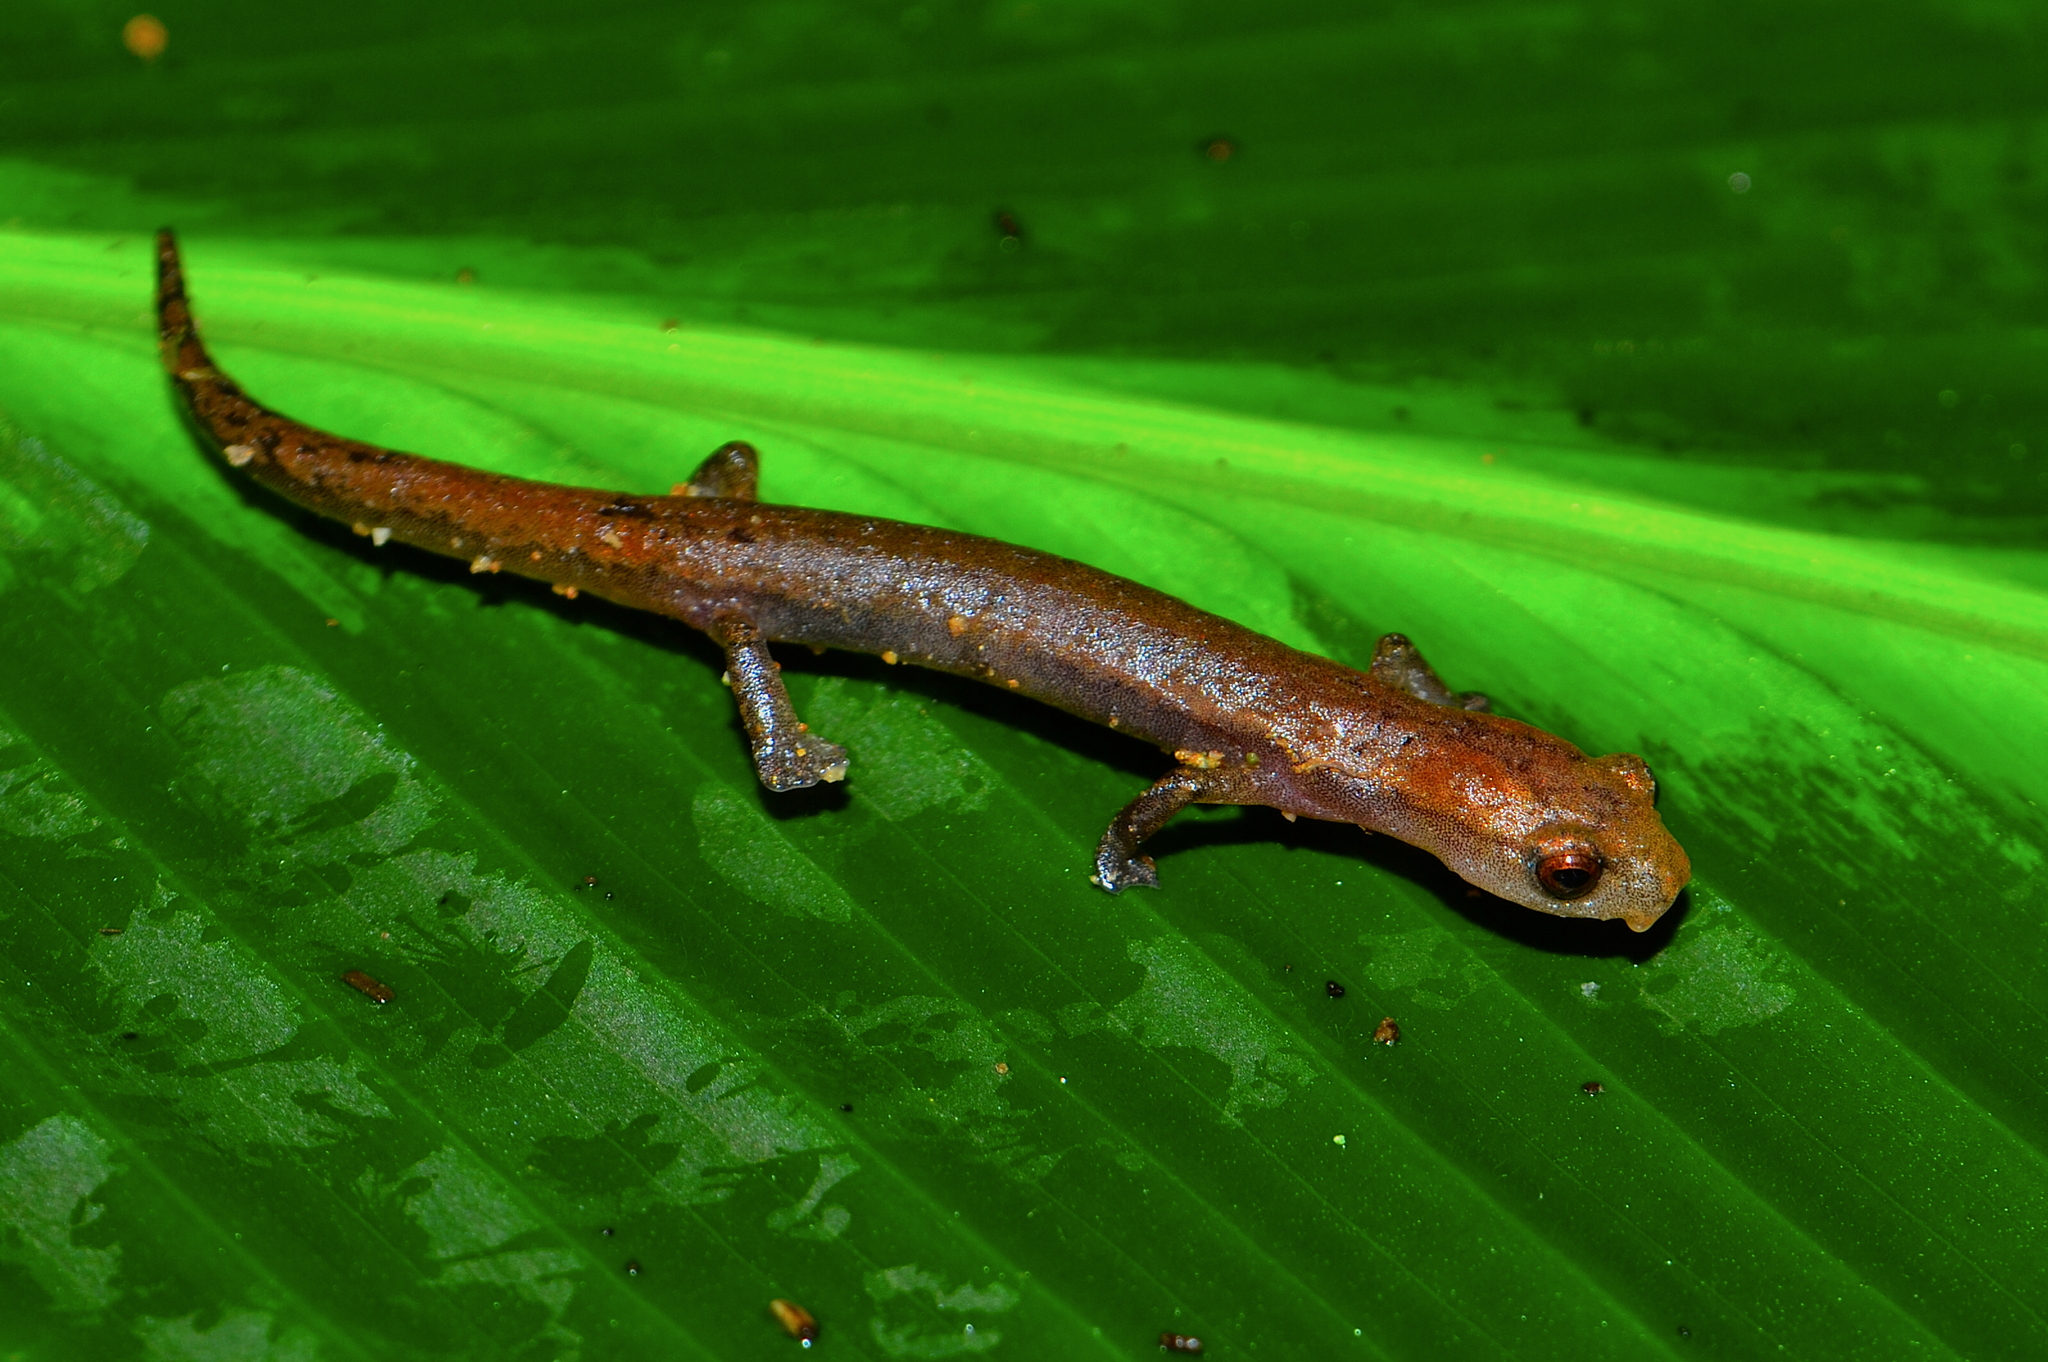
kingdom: Animalia
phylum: Chordata
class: Amphibia
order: Caudata
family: Plethodontidae
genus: Bolitoglossa
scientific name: Bolitoglossa occidentalis
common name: Southern banana salamander
